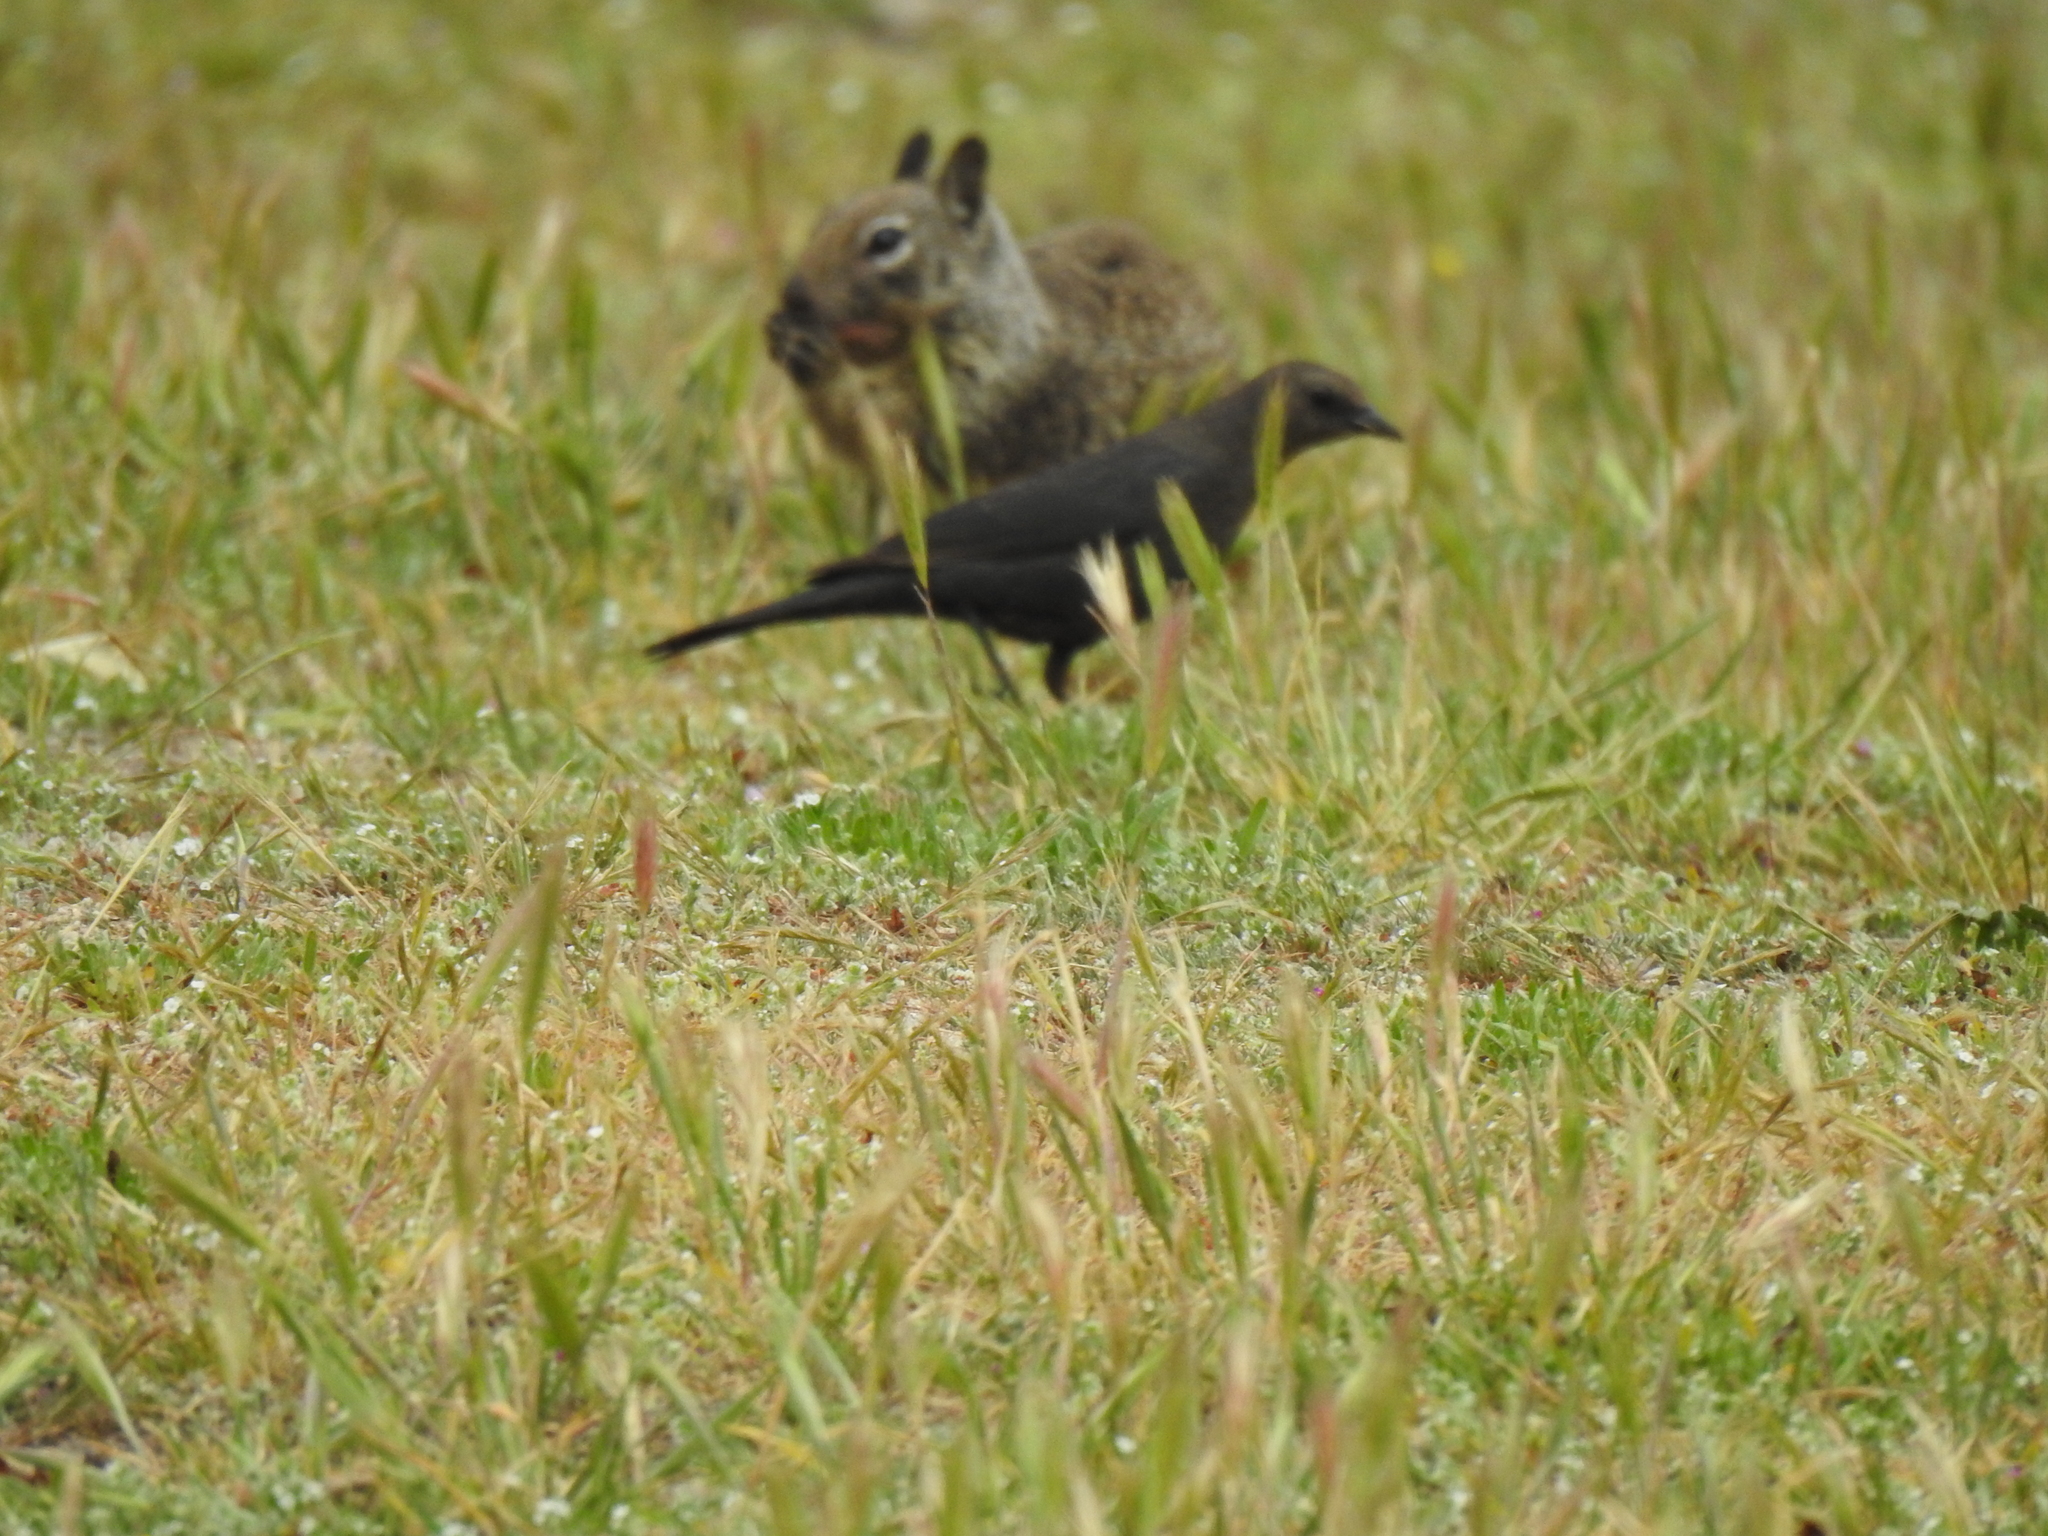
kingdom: Animalia
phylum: Chordata
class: Aves
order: Passeriformes
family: Icteridae
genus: Euphagus
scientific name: Euphagus cyanocephalus
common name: Brewer's blackbird
